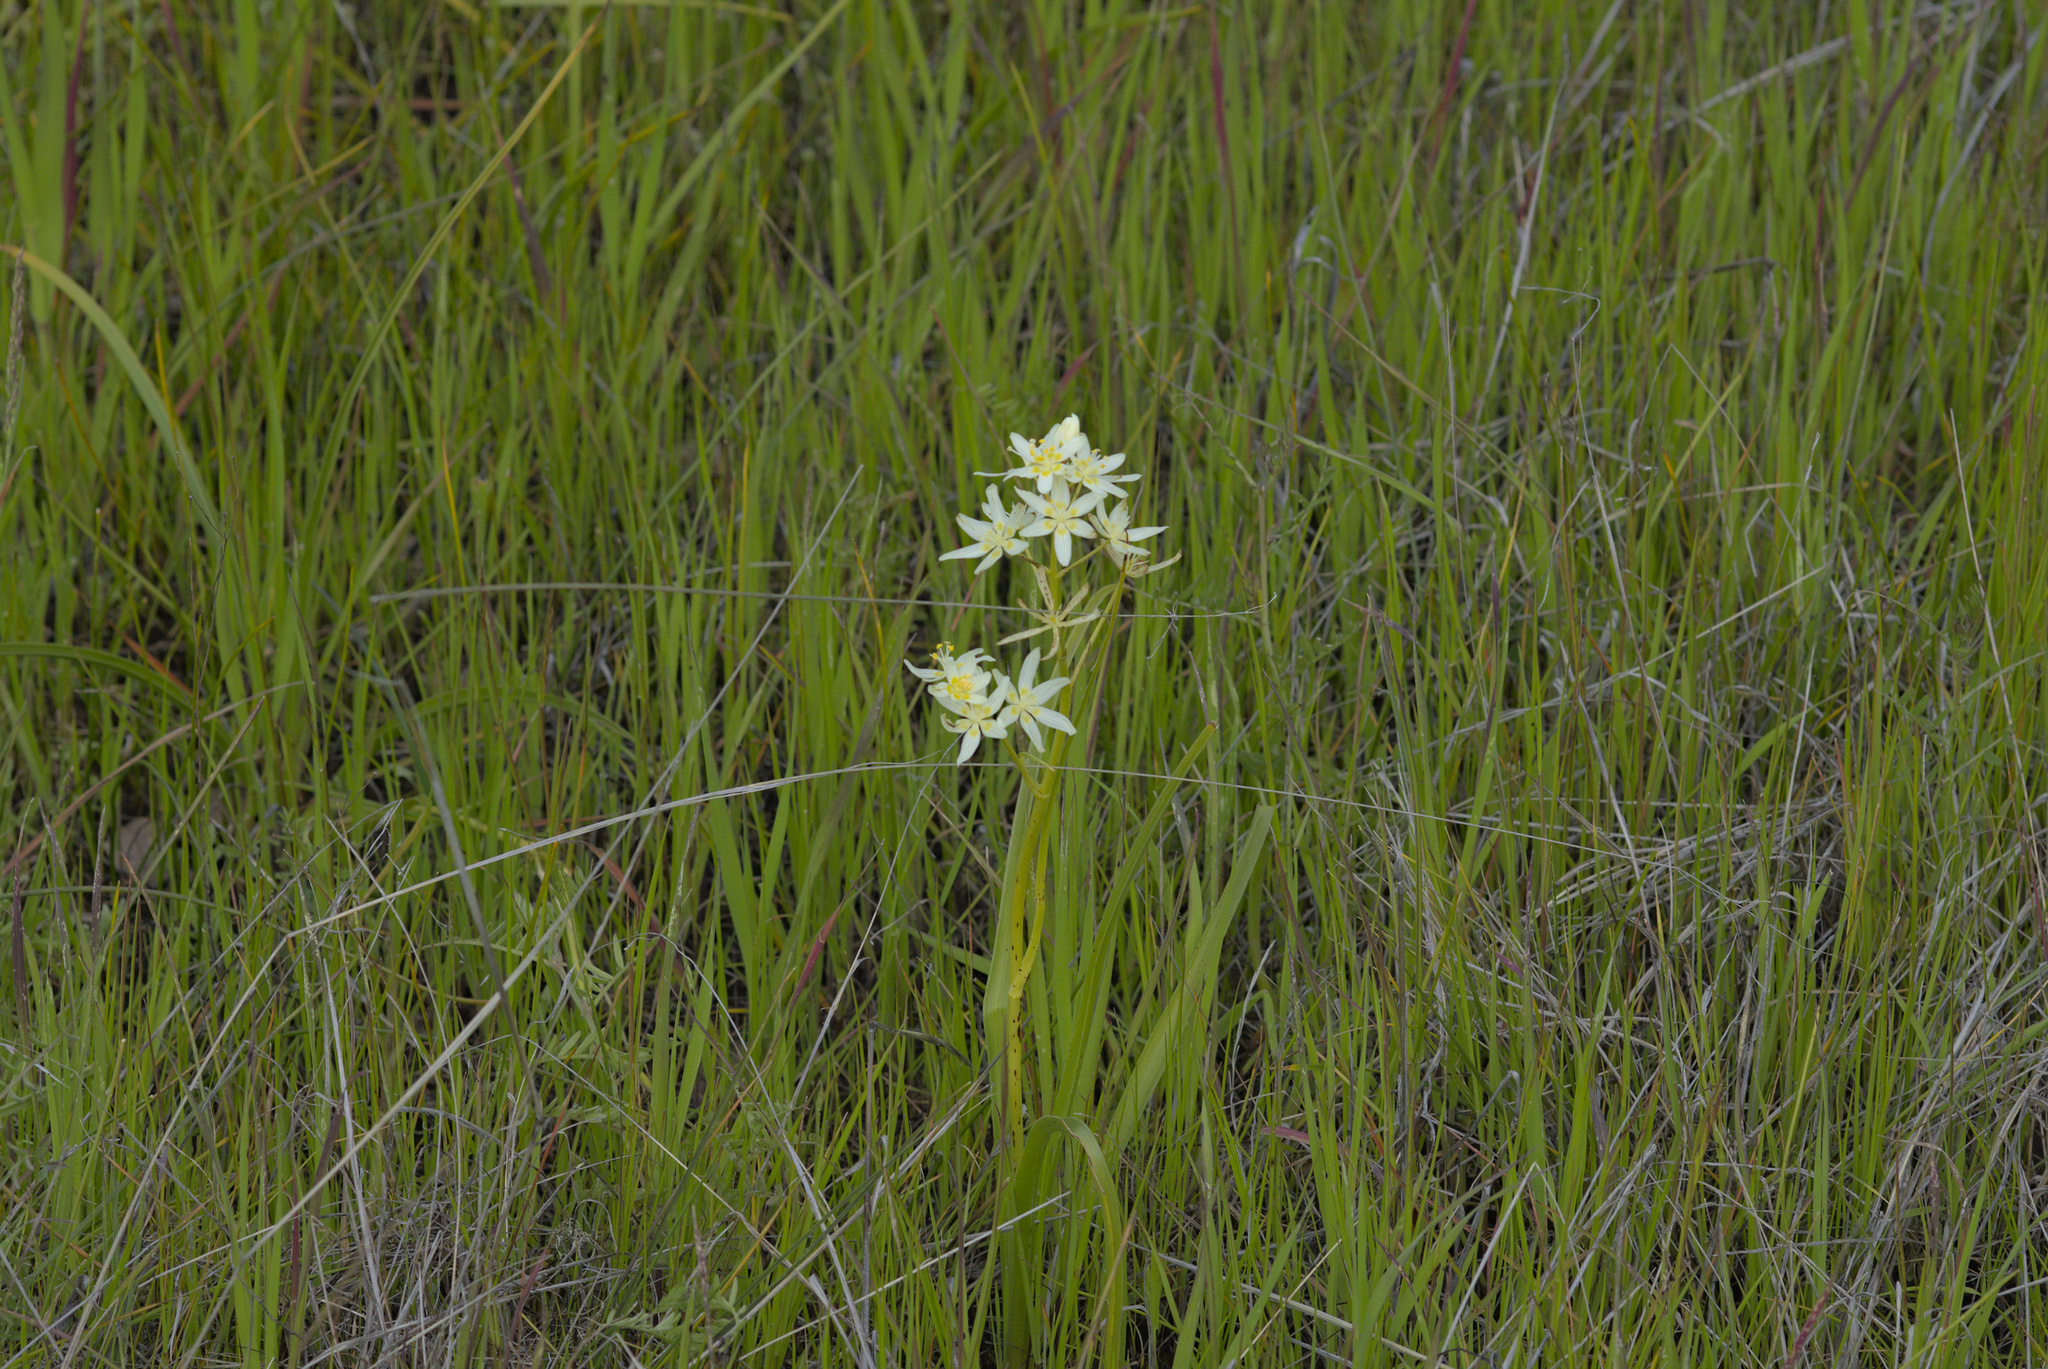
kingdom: Plantae
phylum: Tracheophyta
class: Liliopsida
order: Liliales
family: Melanthiaceae
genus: Toxicoscordion
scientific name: Toxicoscordion fremontii
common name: Fremont's death camas
